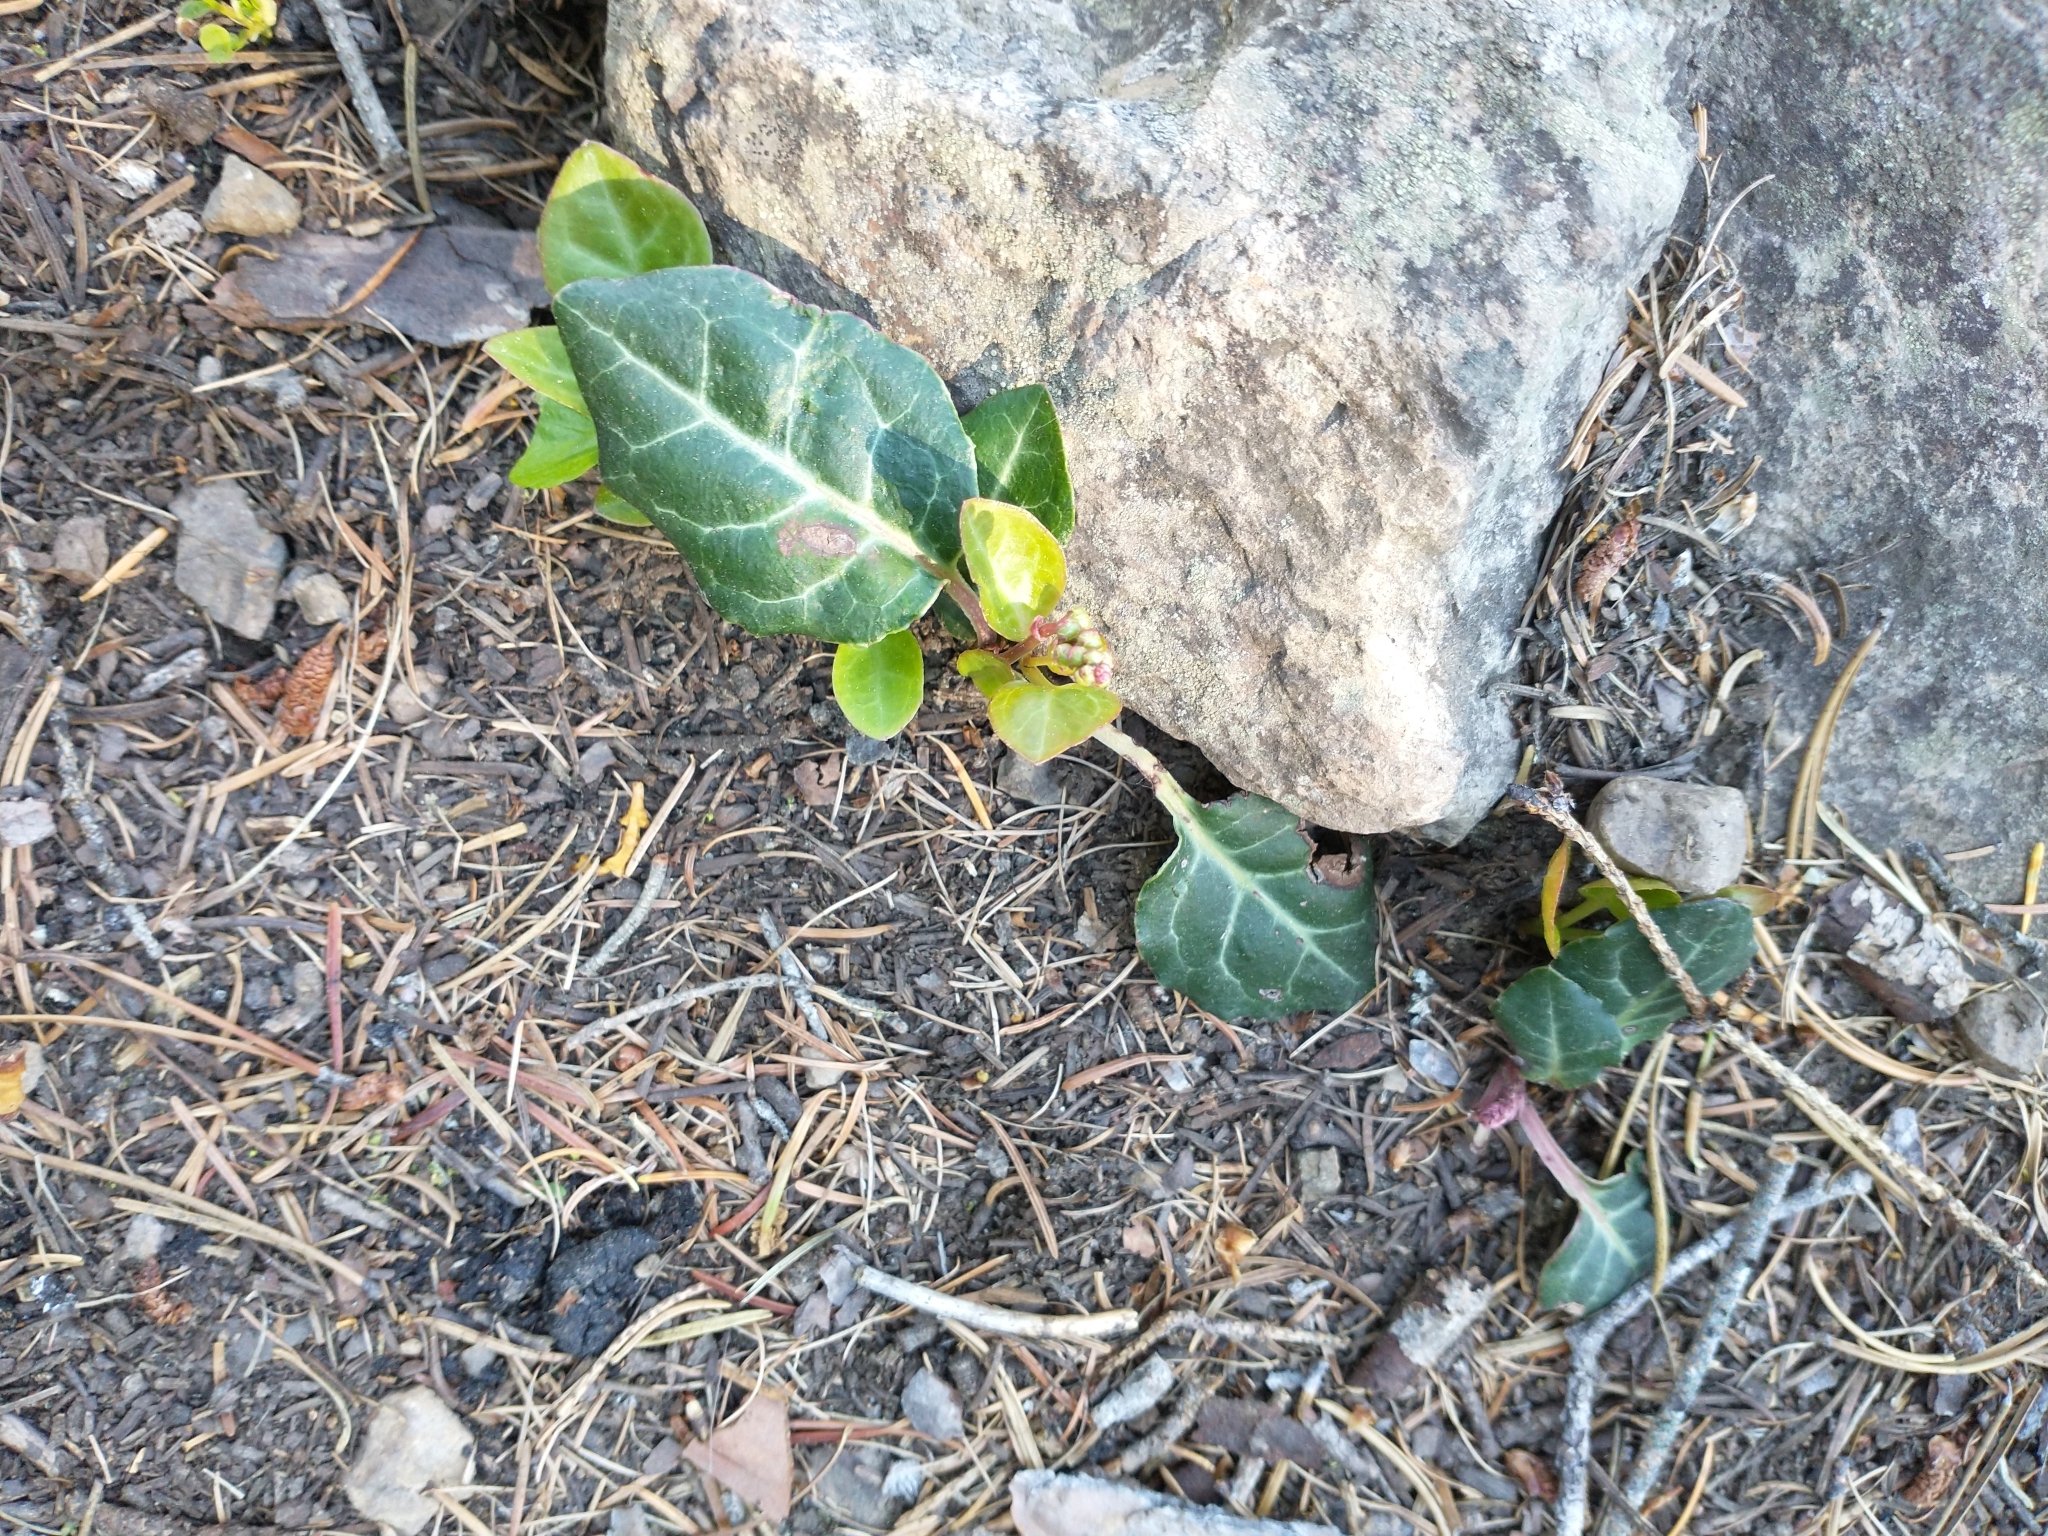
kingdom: Plantae
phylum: Tracheophyta
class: Magnoliopsida
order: Ericales
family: Ericaceae
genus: Pyrola
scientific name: Pyrola picta
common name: White-vein wintergreen
